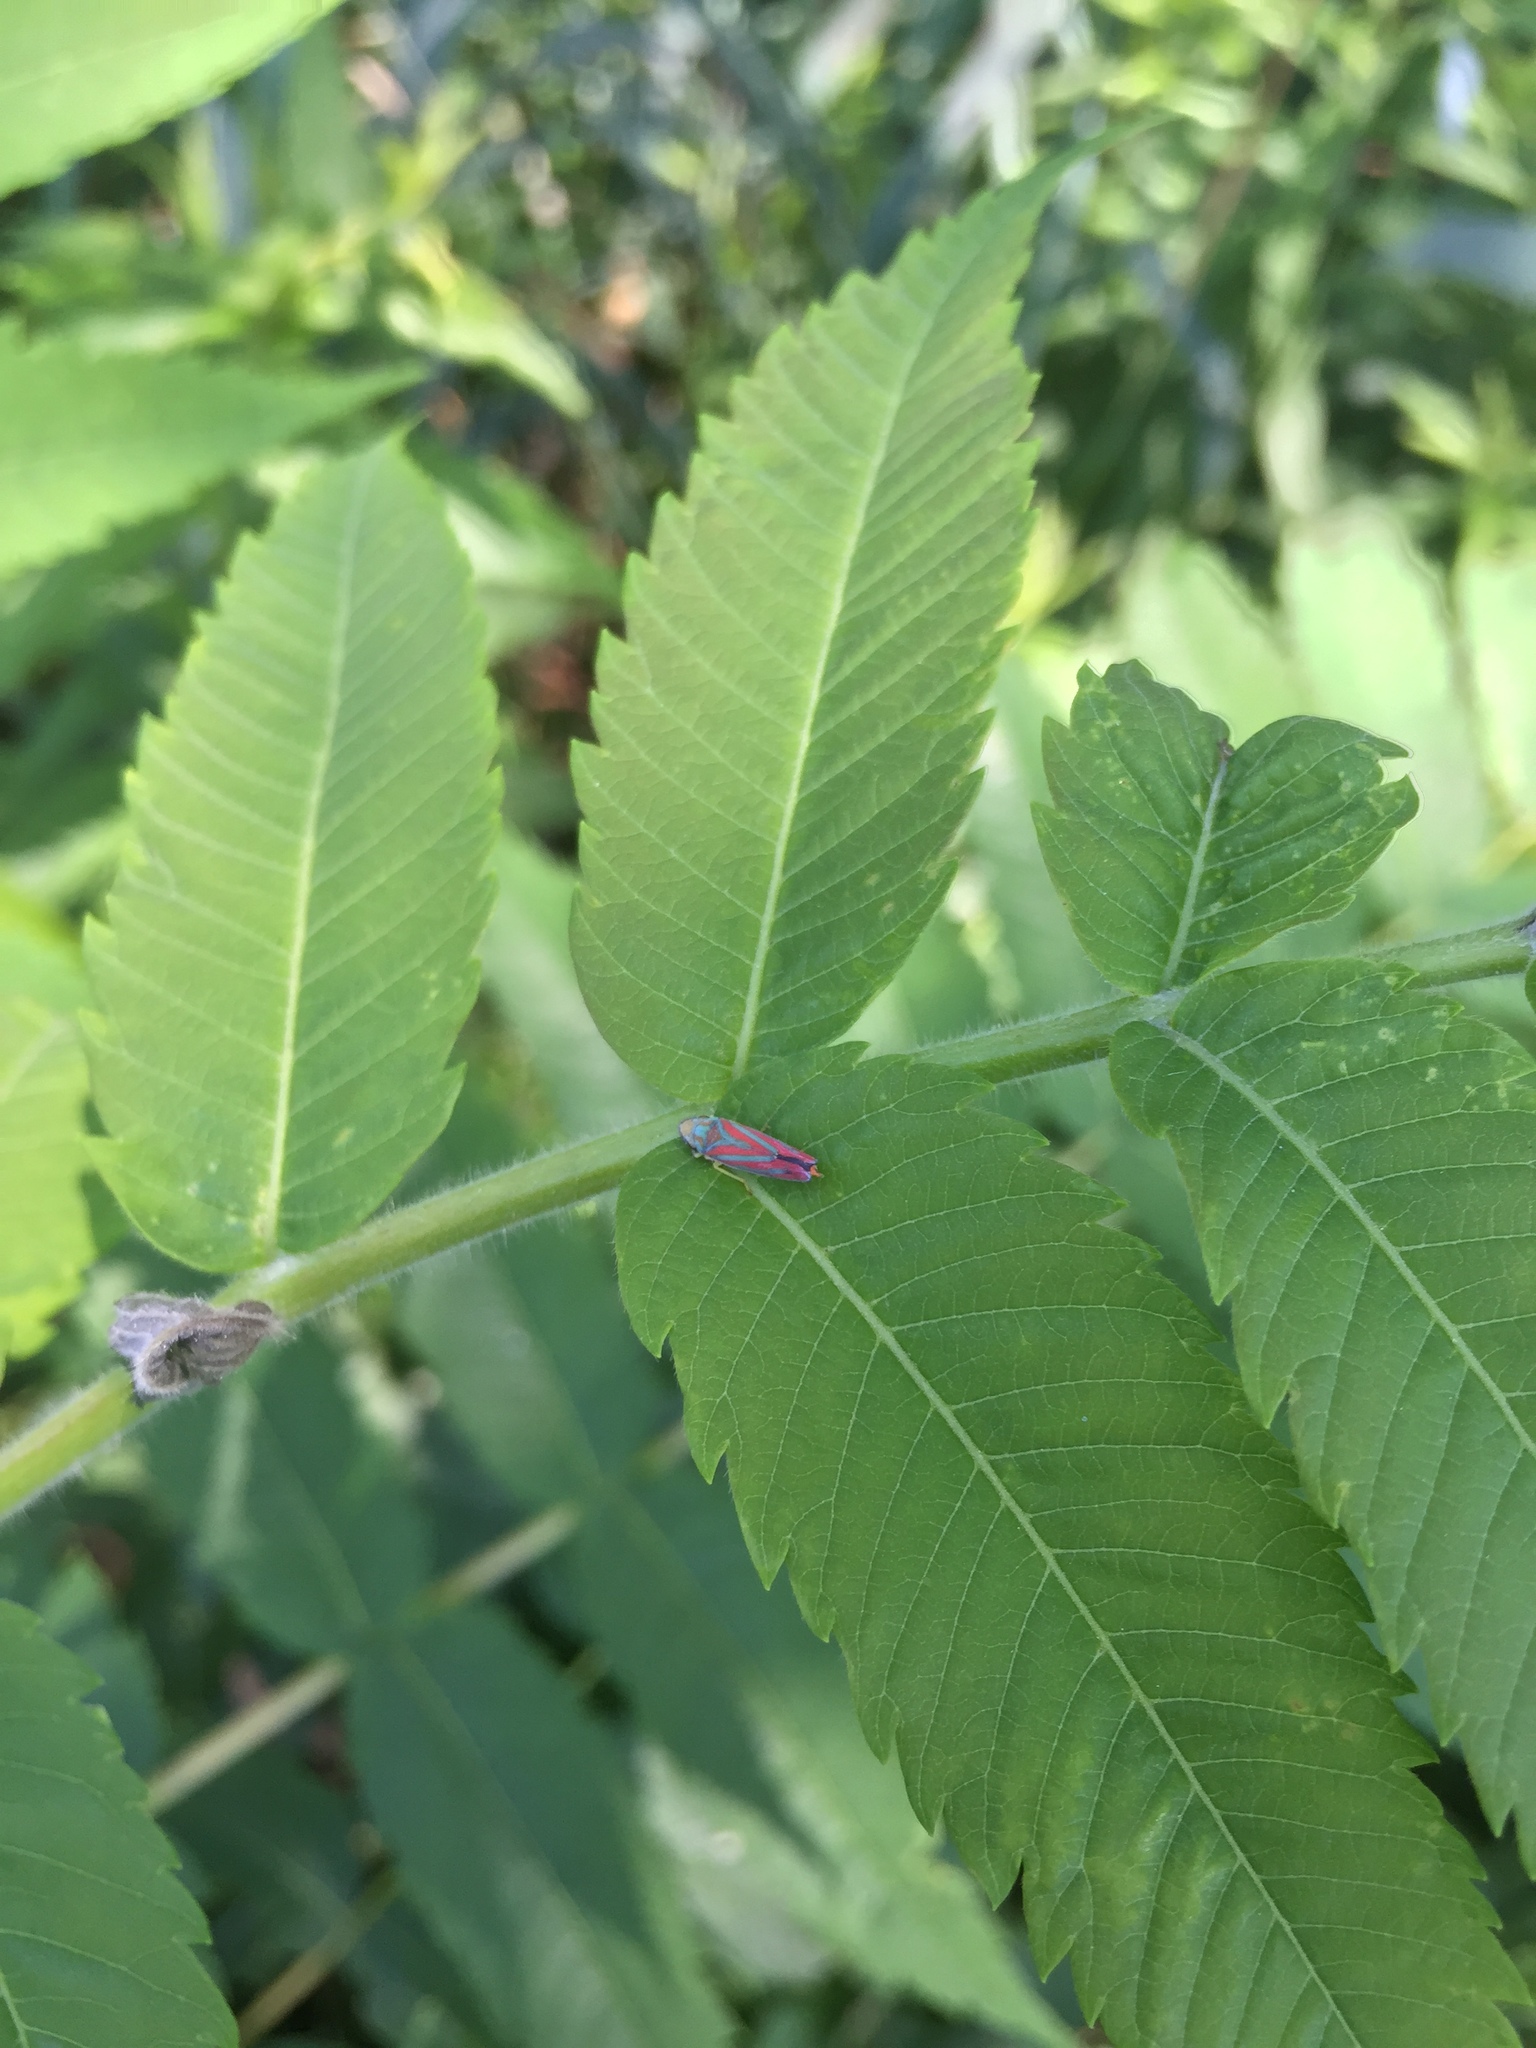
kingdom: Animalia
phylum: Arthropoda
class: Insecta
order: Hemiptera
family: Cicadellidae
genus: Graphocephala
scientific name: Graphocephala coccinea
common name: Candy-striped leafhopper
